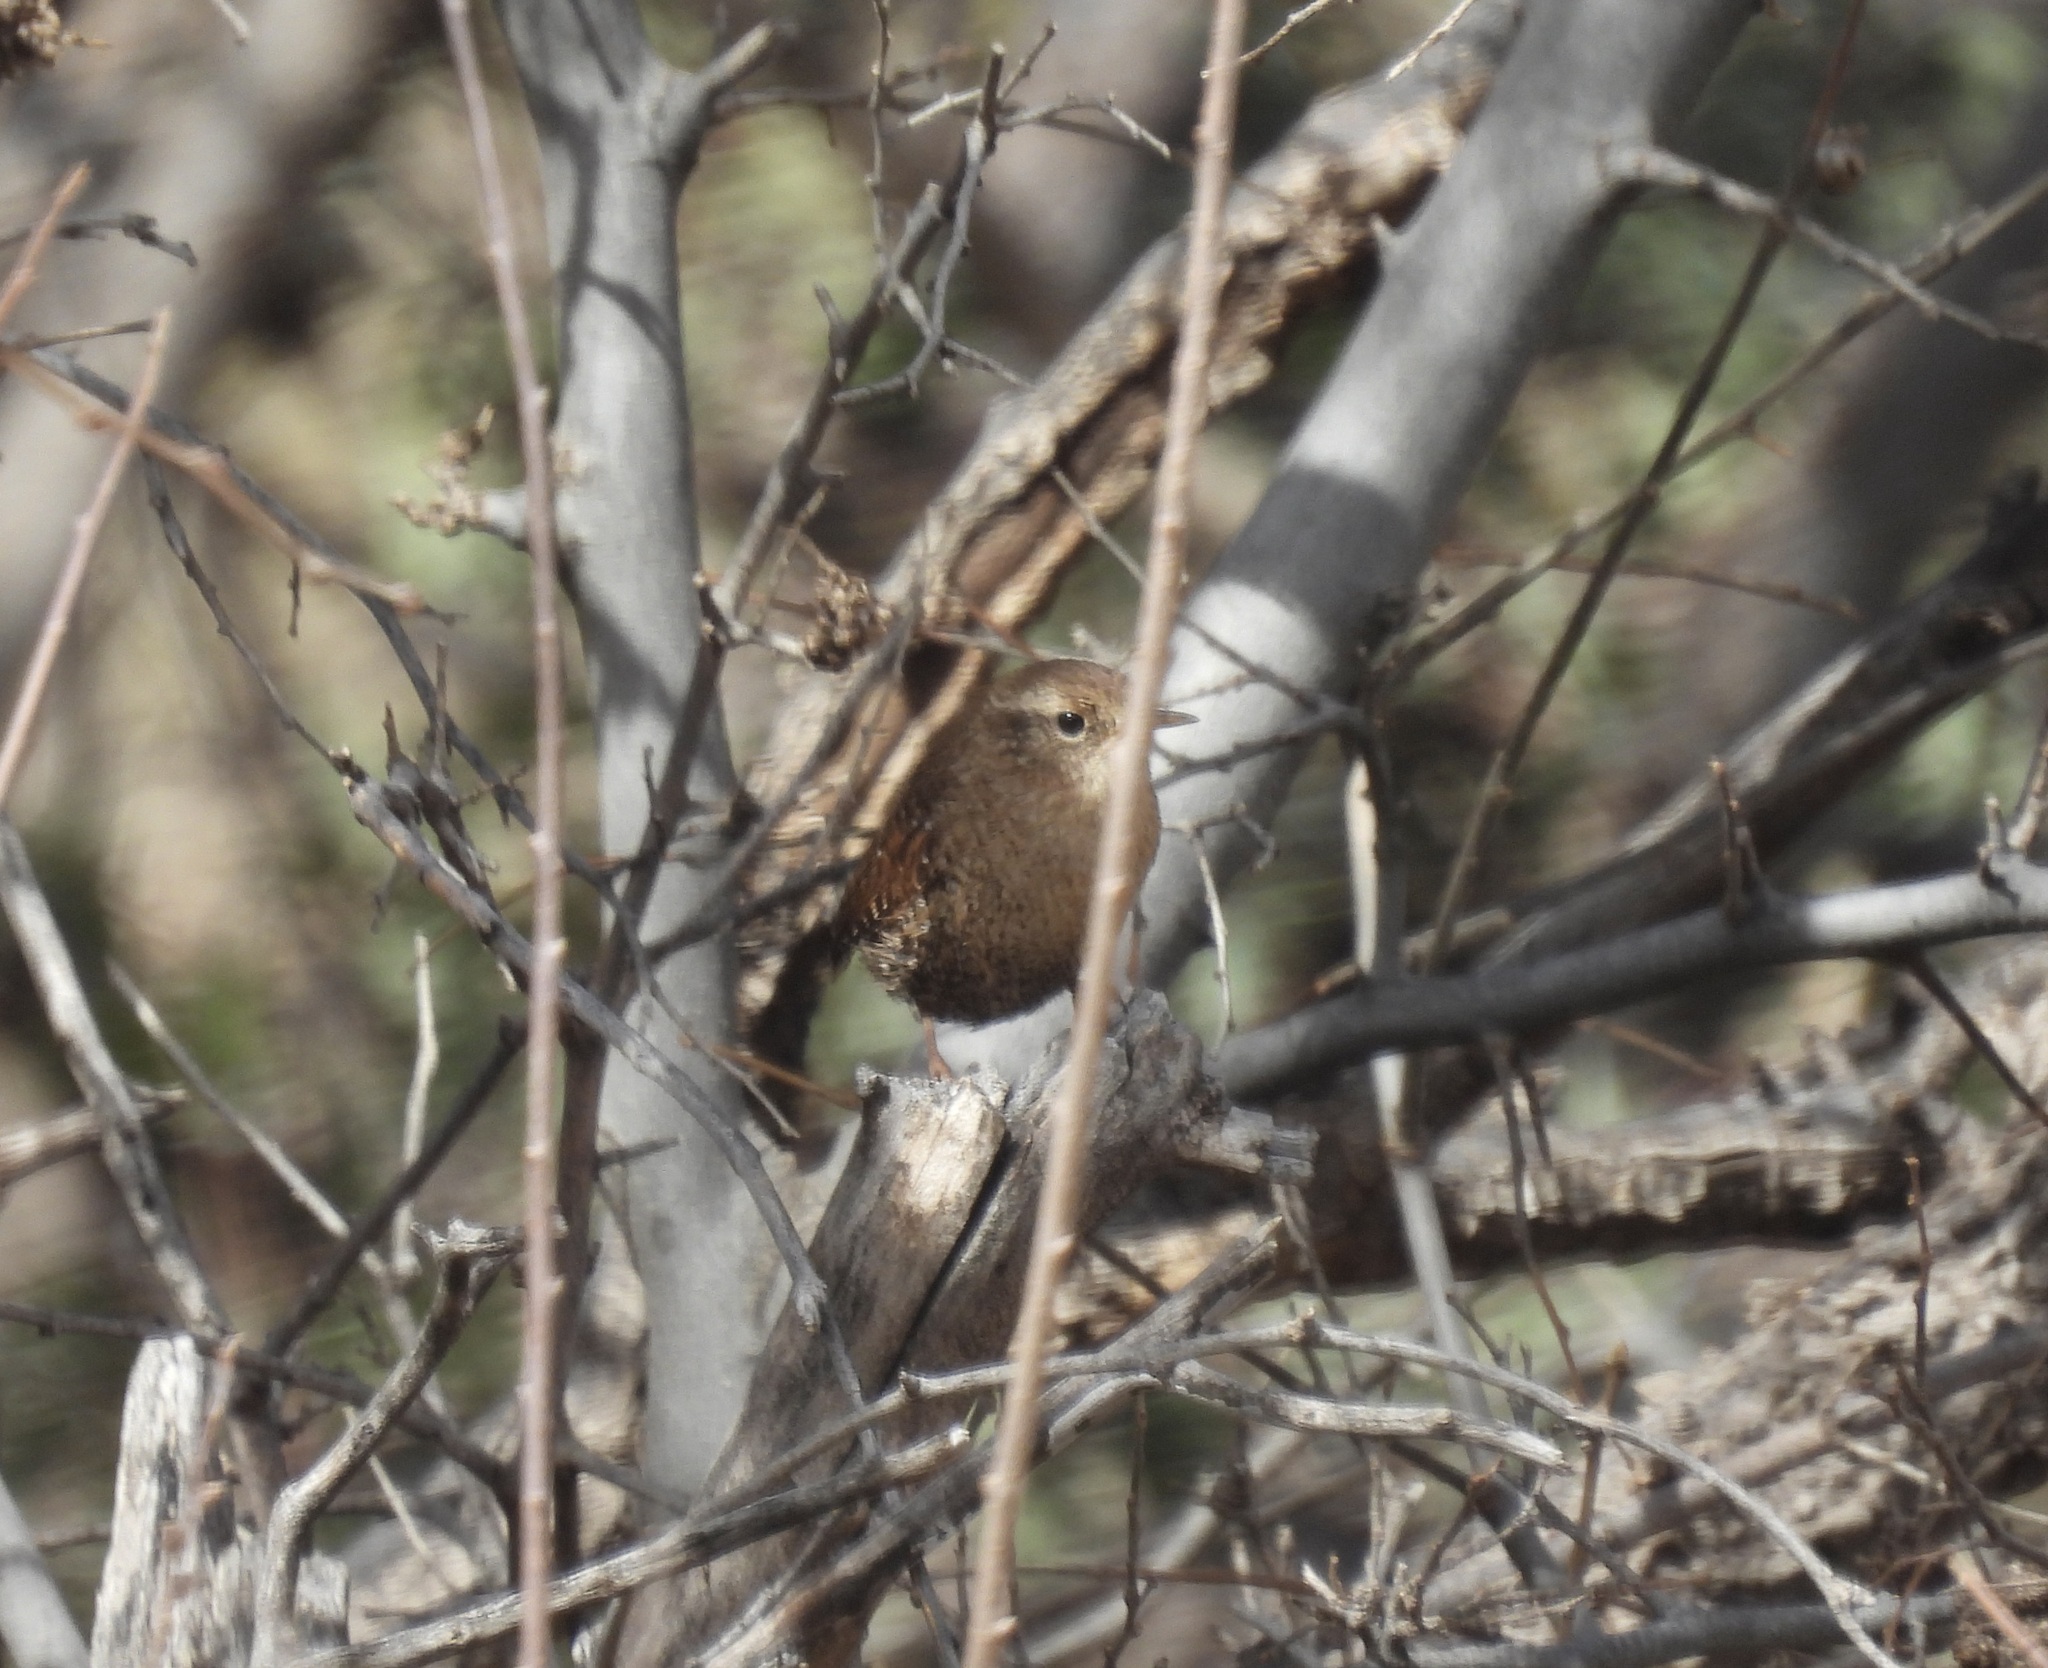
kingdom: Animalia
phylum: Chordata
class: Aves
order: Passeriformes
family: Troglodytidae
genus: Troglodytes
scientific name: Troglodytes hiemalis
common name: Winter wren
